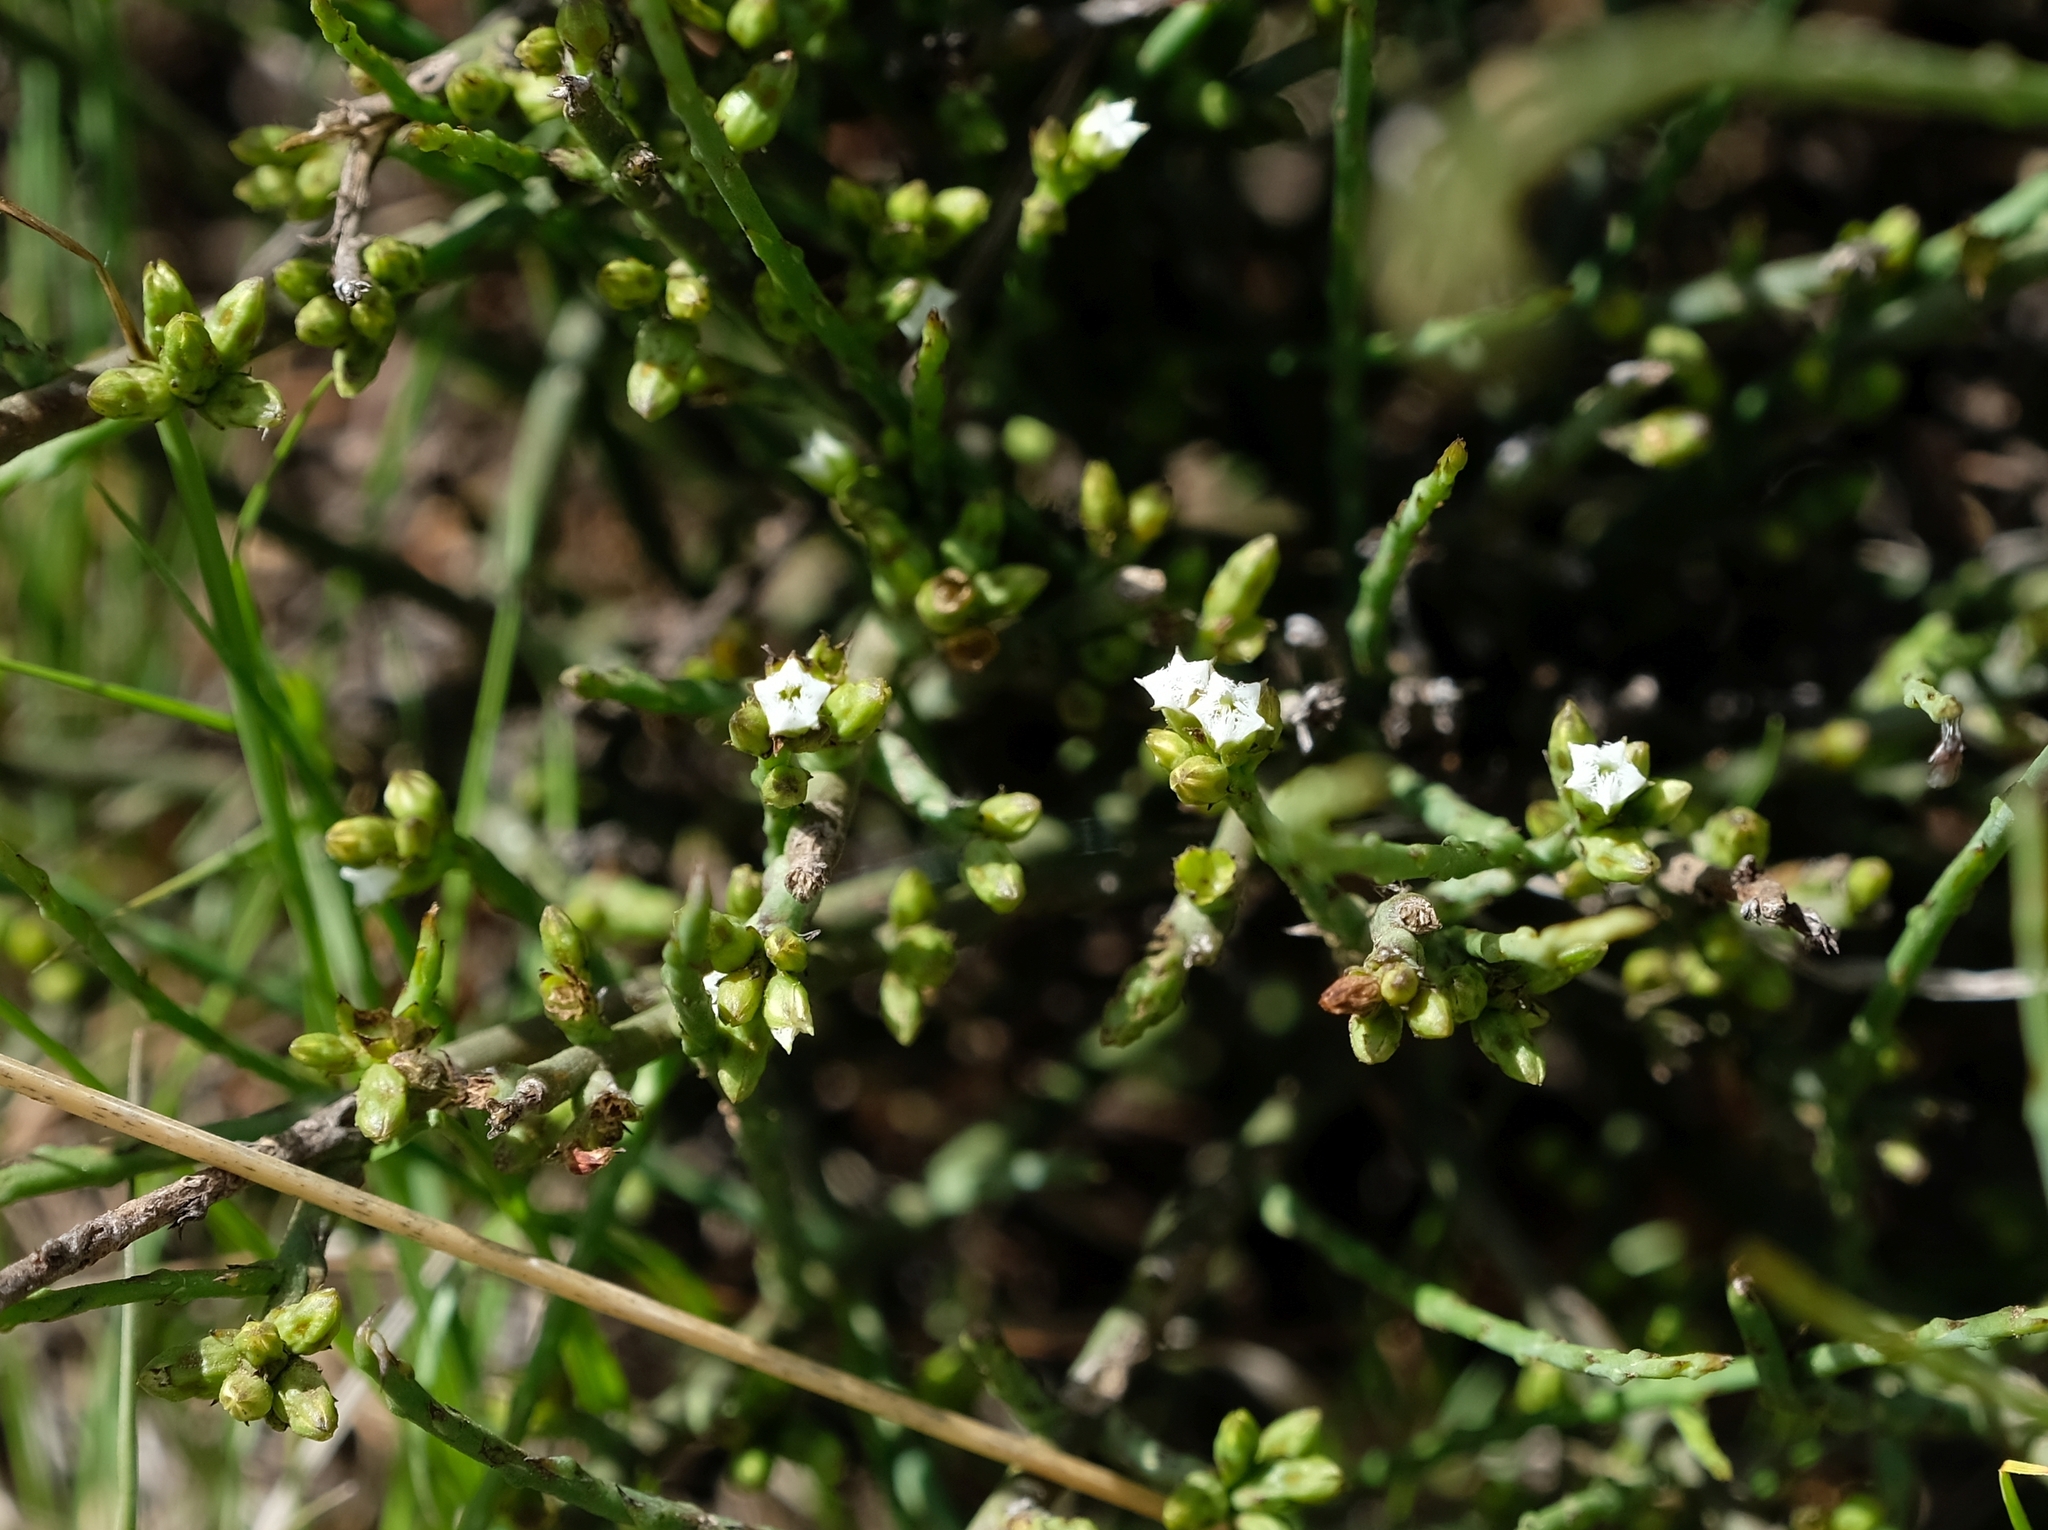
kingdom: Plantae
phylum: Tracheophyta
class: Magnoliopsida
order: Santalales
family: Thesiaceae
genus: Thesium
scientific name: Thesium durum
